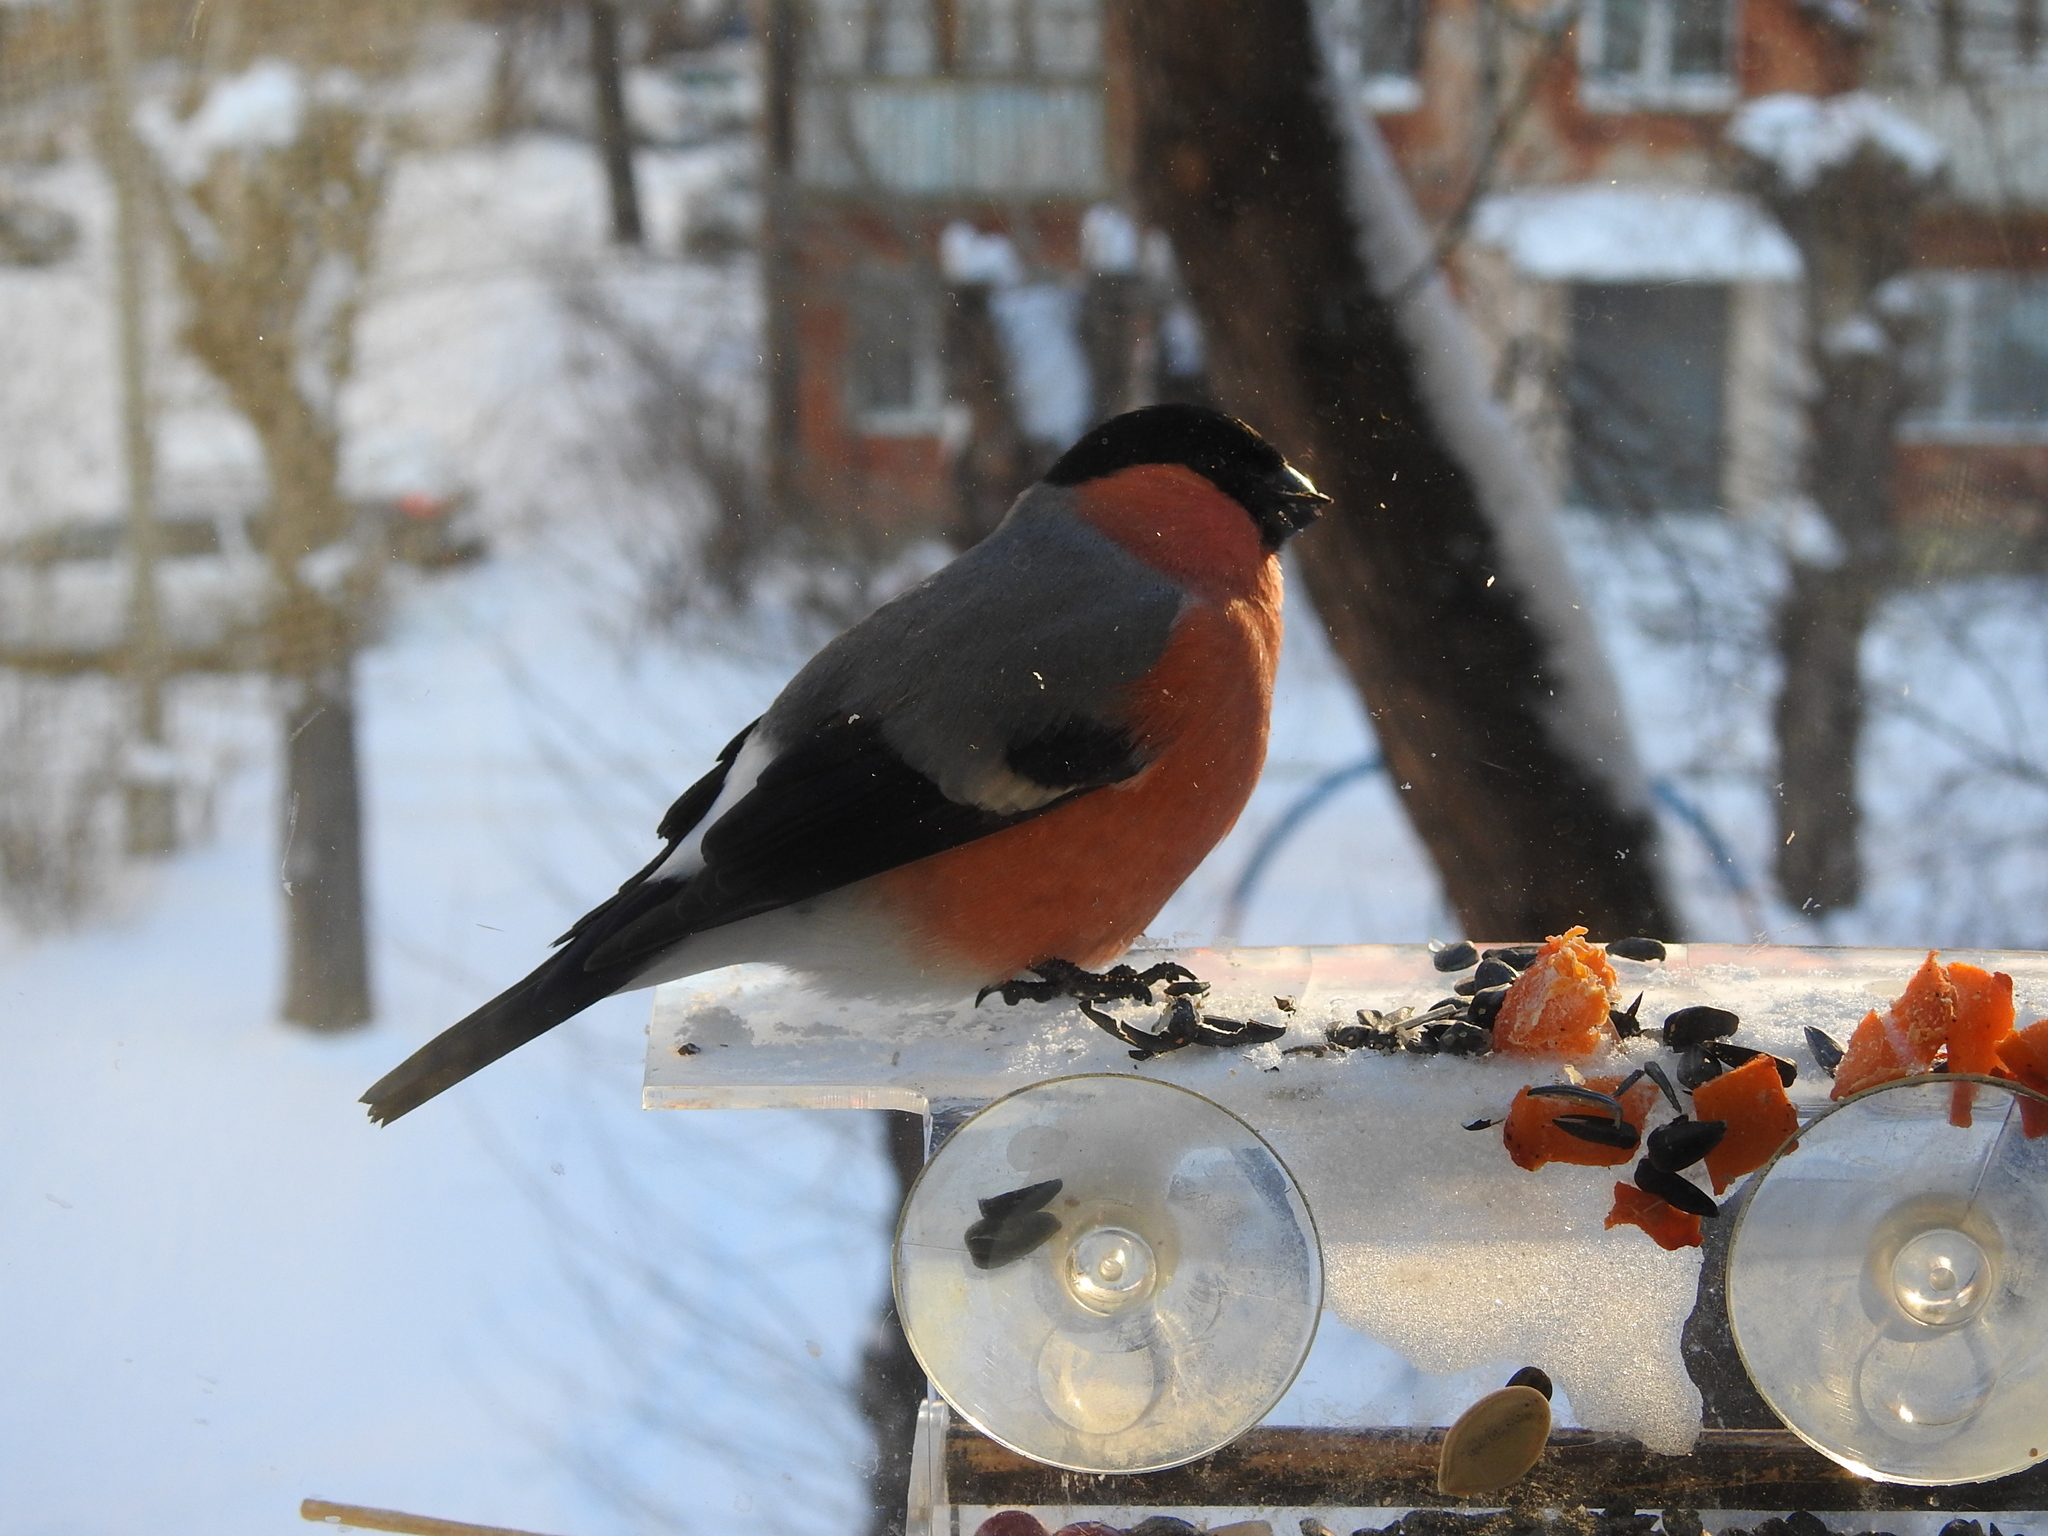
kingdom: Animalia
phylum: Chordata
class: Aves
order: Passeriformes
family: Fringillidae
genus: Pyrrhula
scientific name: Pyrrhula pyrrhula
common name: Eurasian bullfinch
